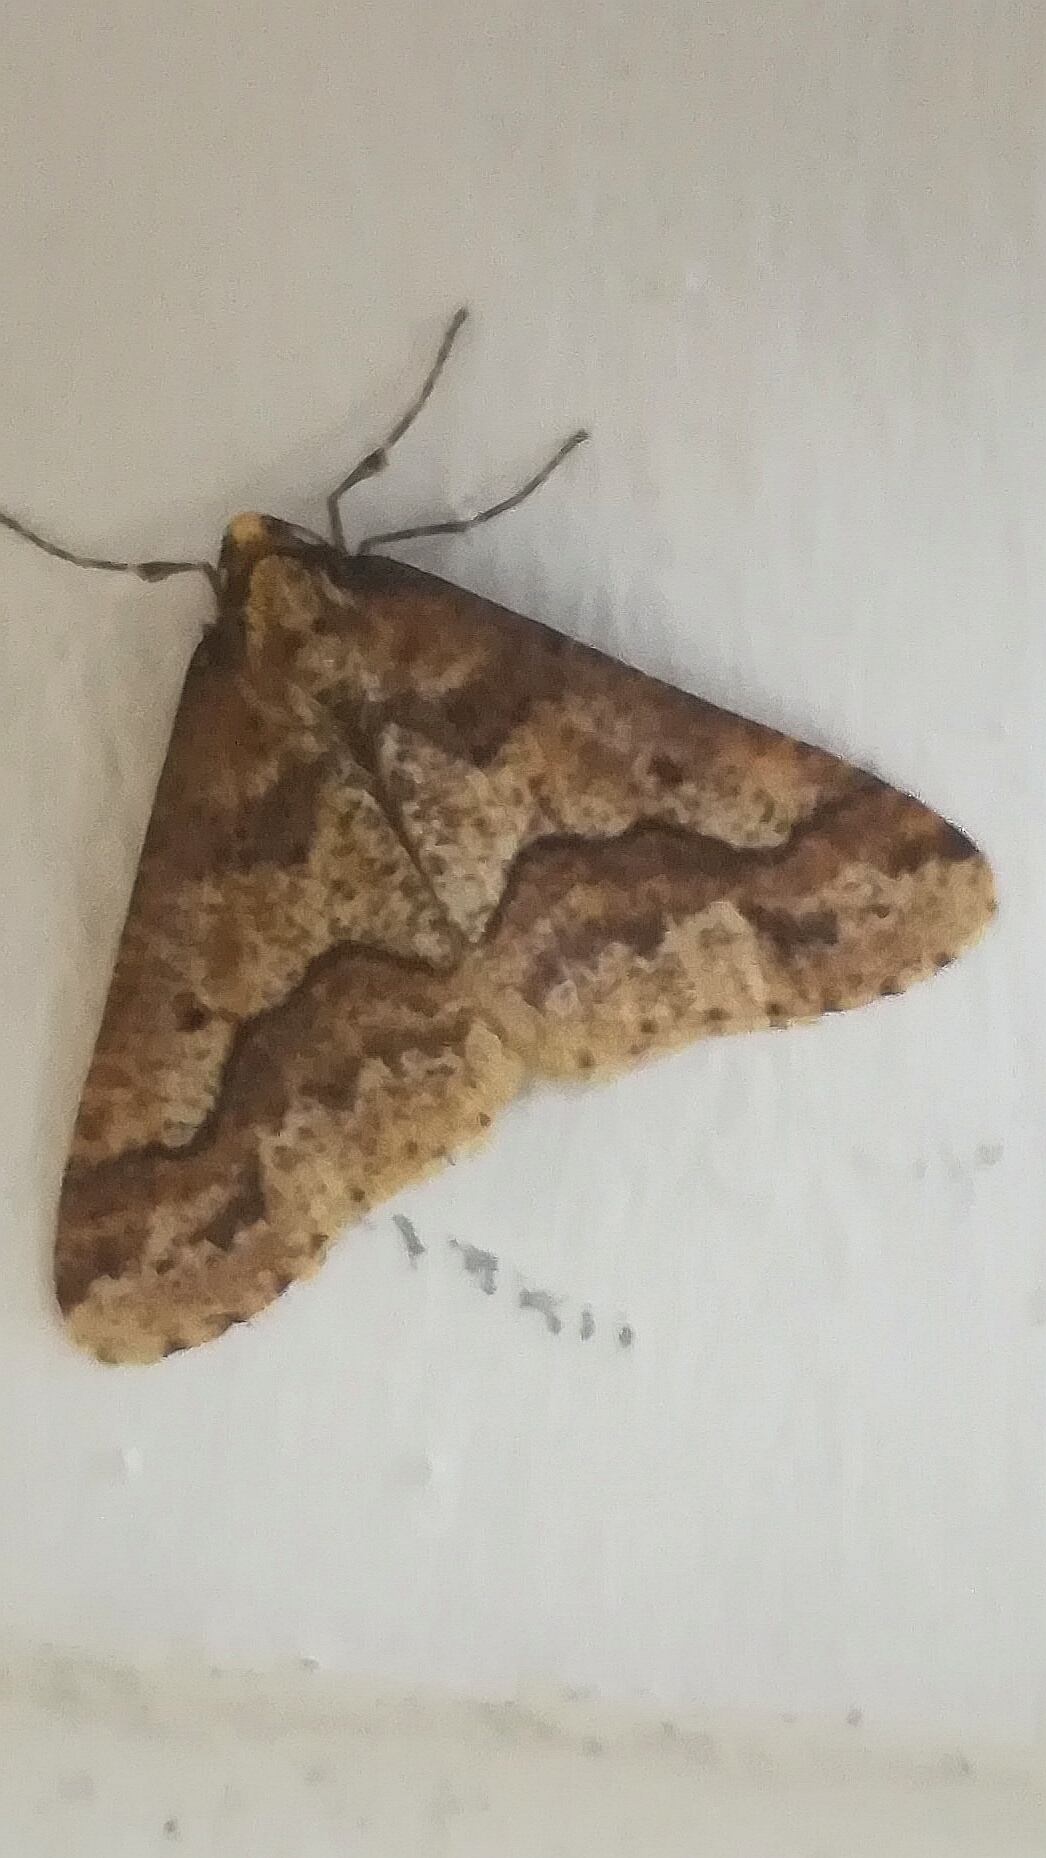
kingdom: Animalia
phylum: Arthropoda
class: Insecta
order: Lepidoptera
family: Geometridae
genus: Erannis
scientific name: Erannis defoliaria
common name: Mottled umber
